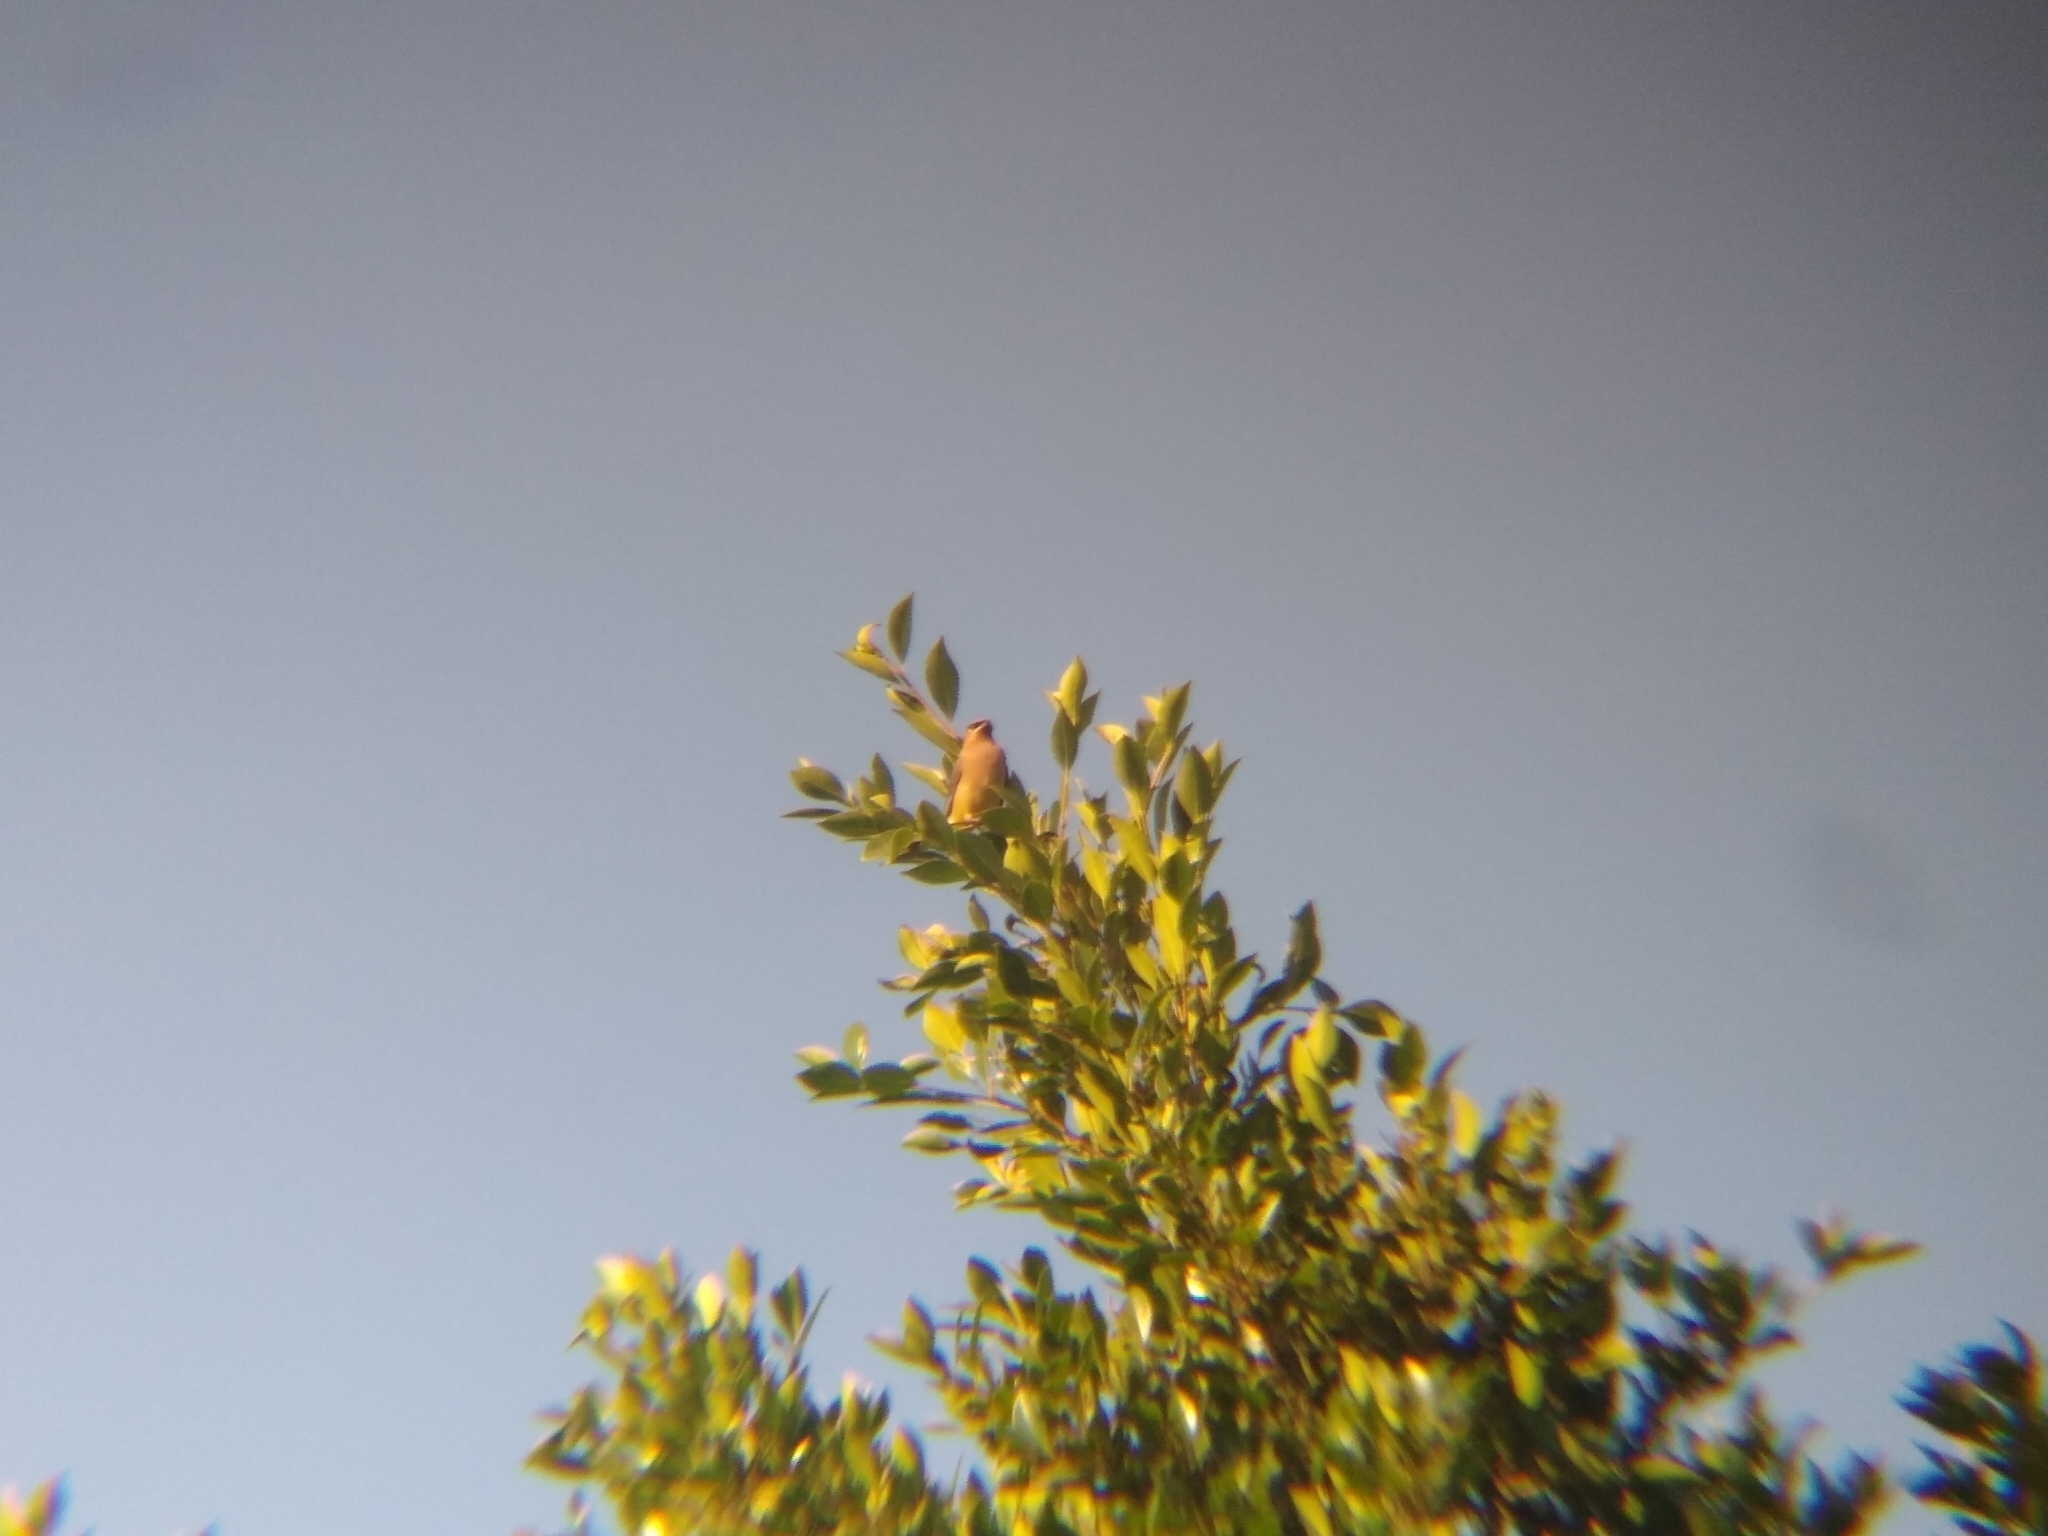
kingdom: Animalia
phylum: Chordata
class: Aves
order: Passeriformes
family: Bombycillidae
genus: Bombycilla
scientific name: Bombycilla cedrorum
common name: Cedar waxwing
